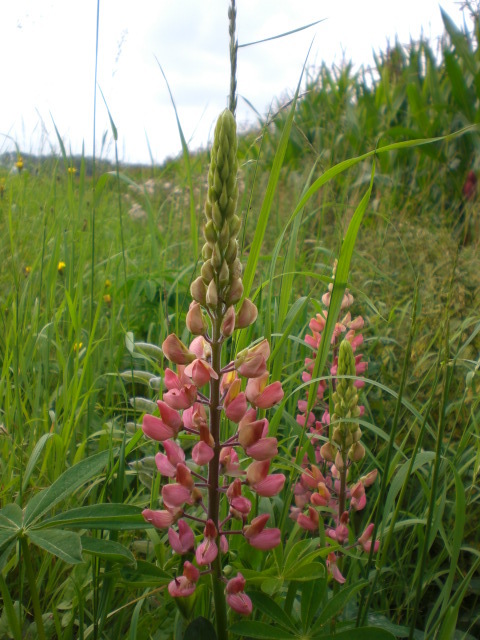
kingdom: Plantae
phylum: Tracheophyta
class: Magnoliopsida
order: Fabales
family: Fabaceae
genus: Lupinus
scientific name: Lupinus polyphyllus
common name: Garden lupin
